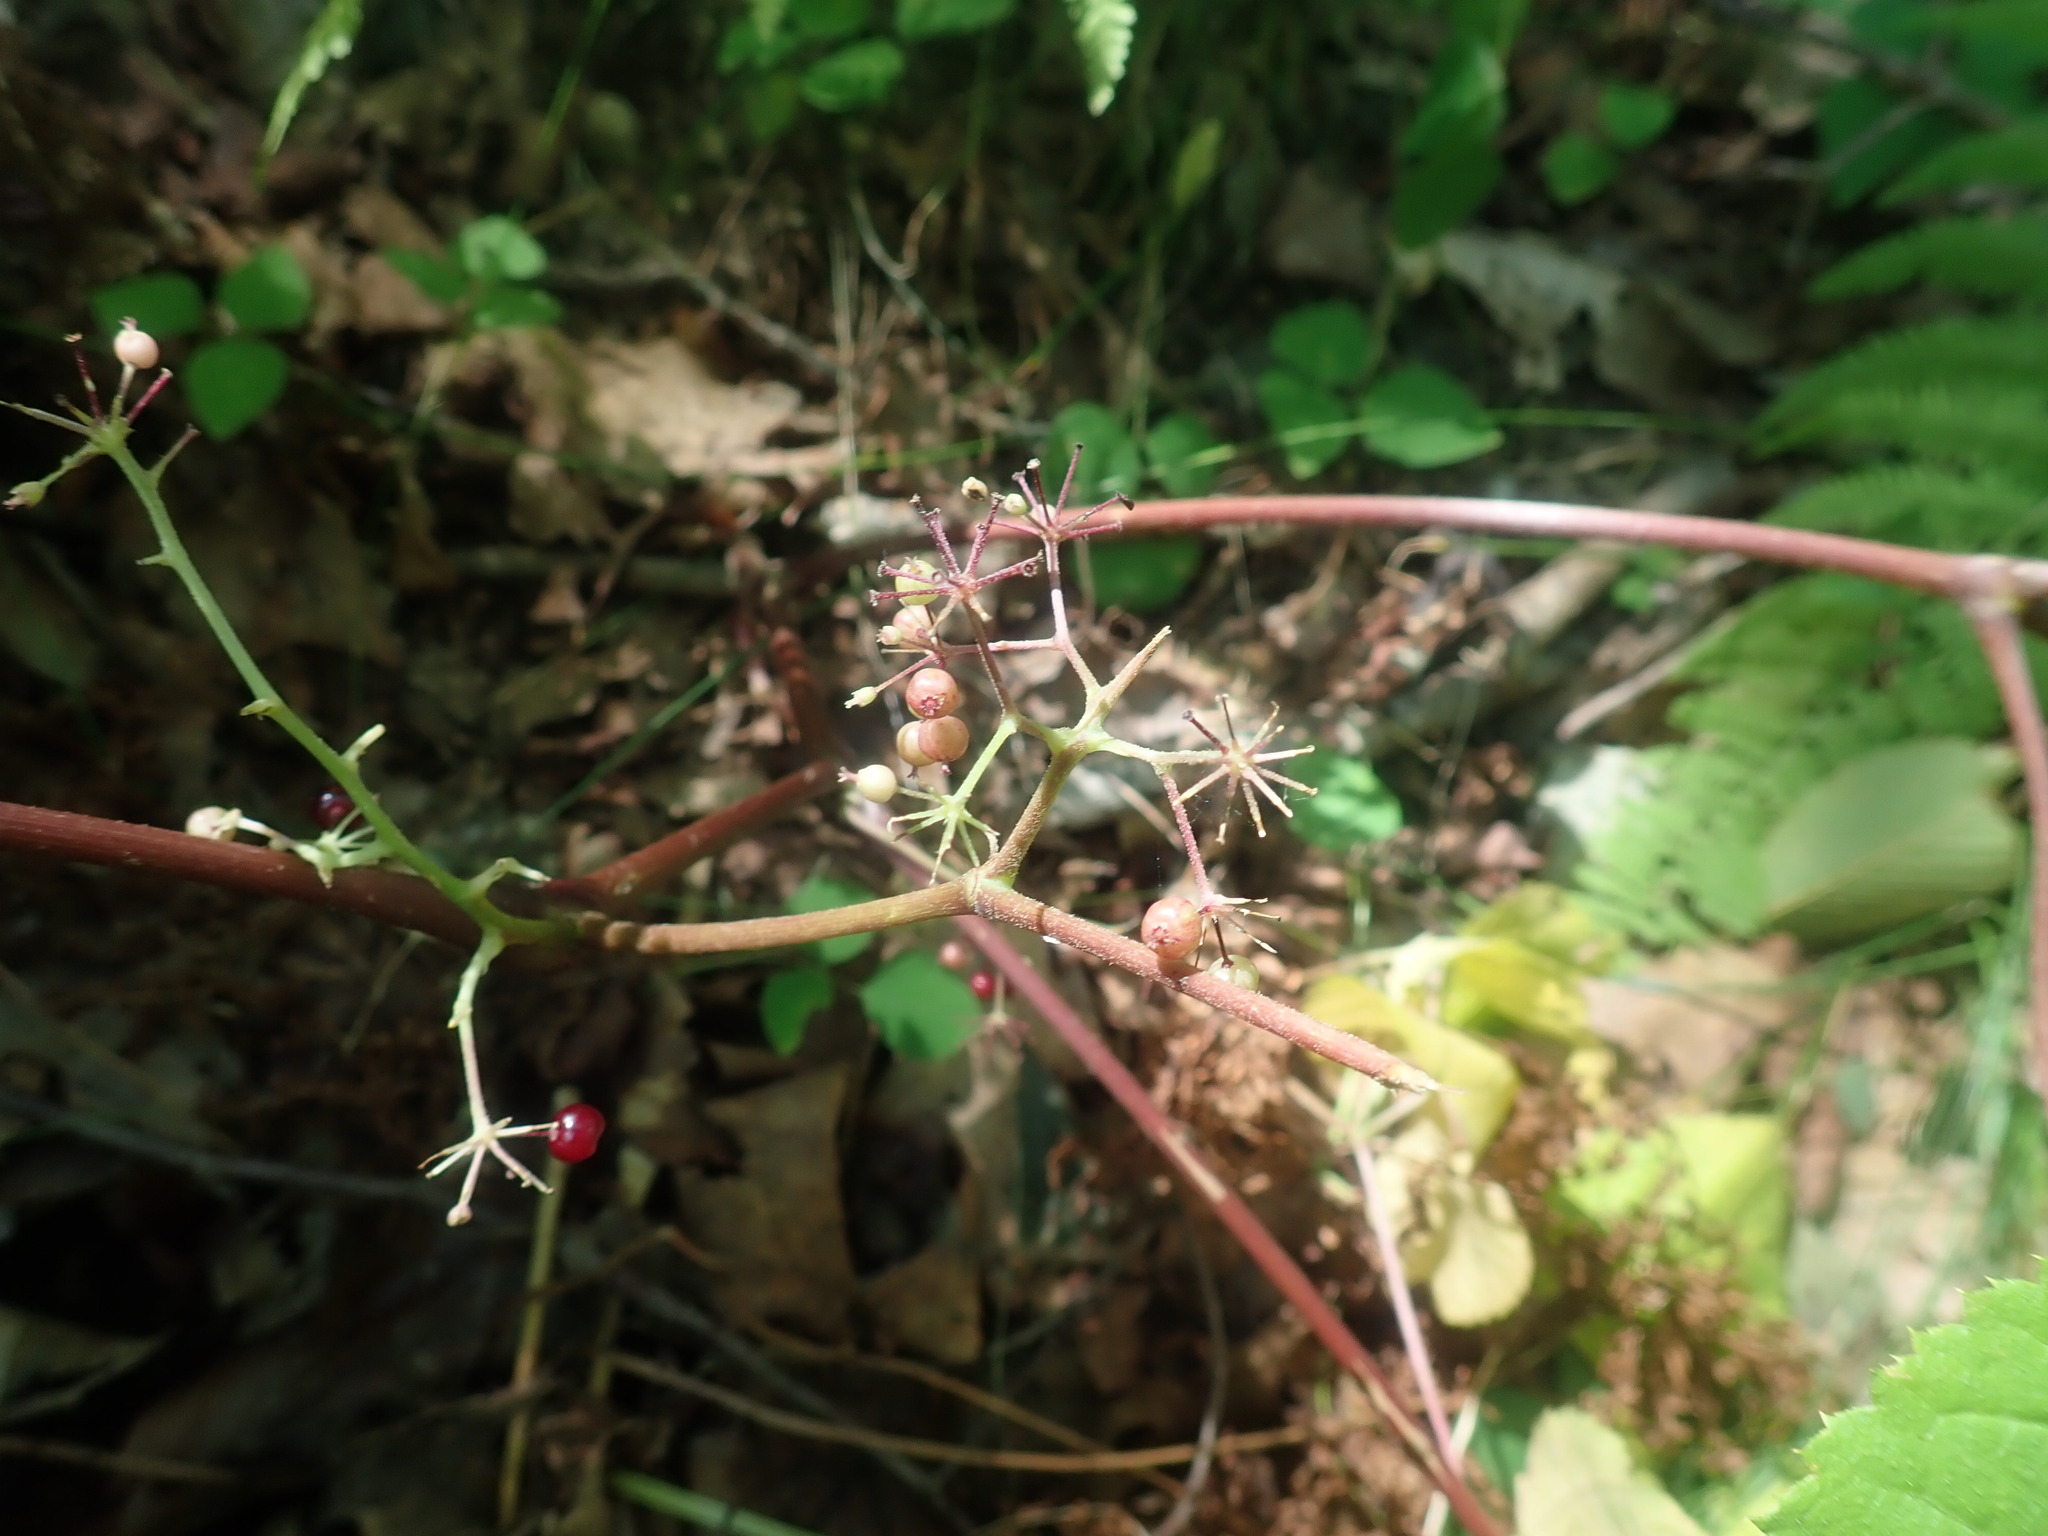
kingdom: Plantae
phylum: Tracheophyta
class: Magnoliopsida
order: Apiales
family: Araliaceae
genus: Aralia
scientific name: Aralia racemosa
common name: American-spikenard
